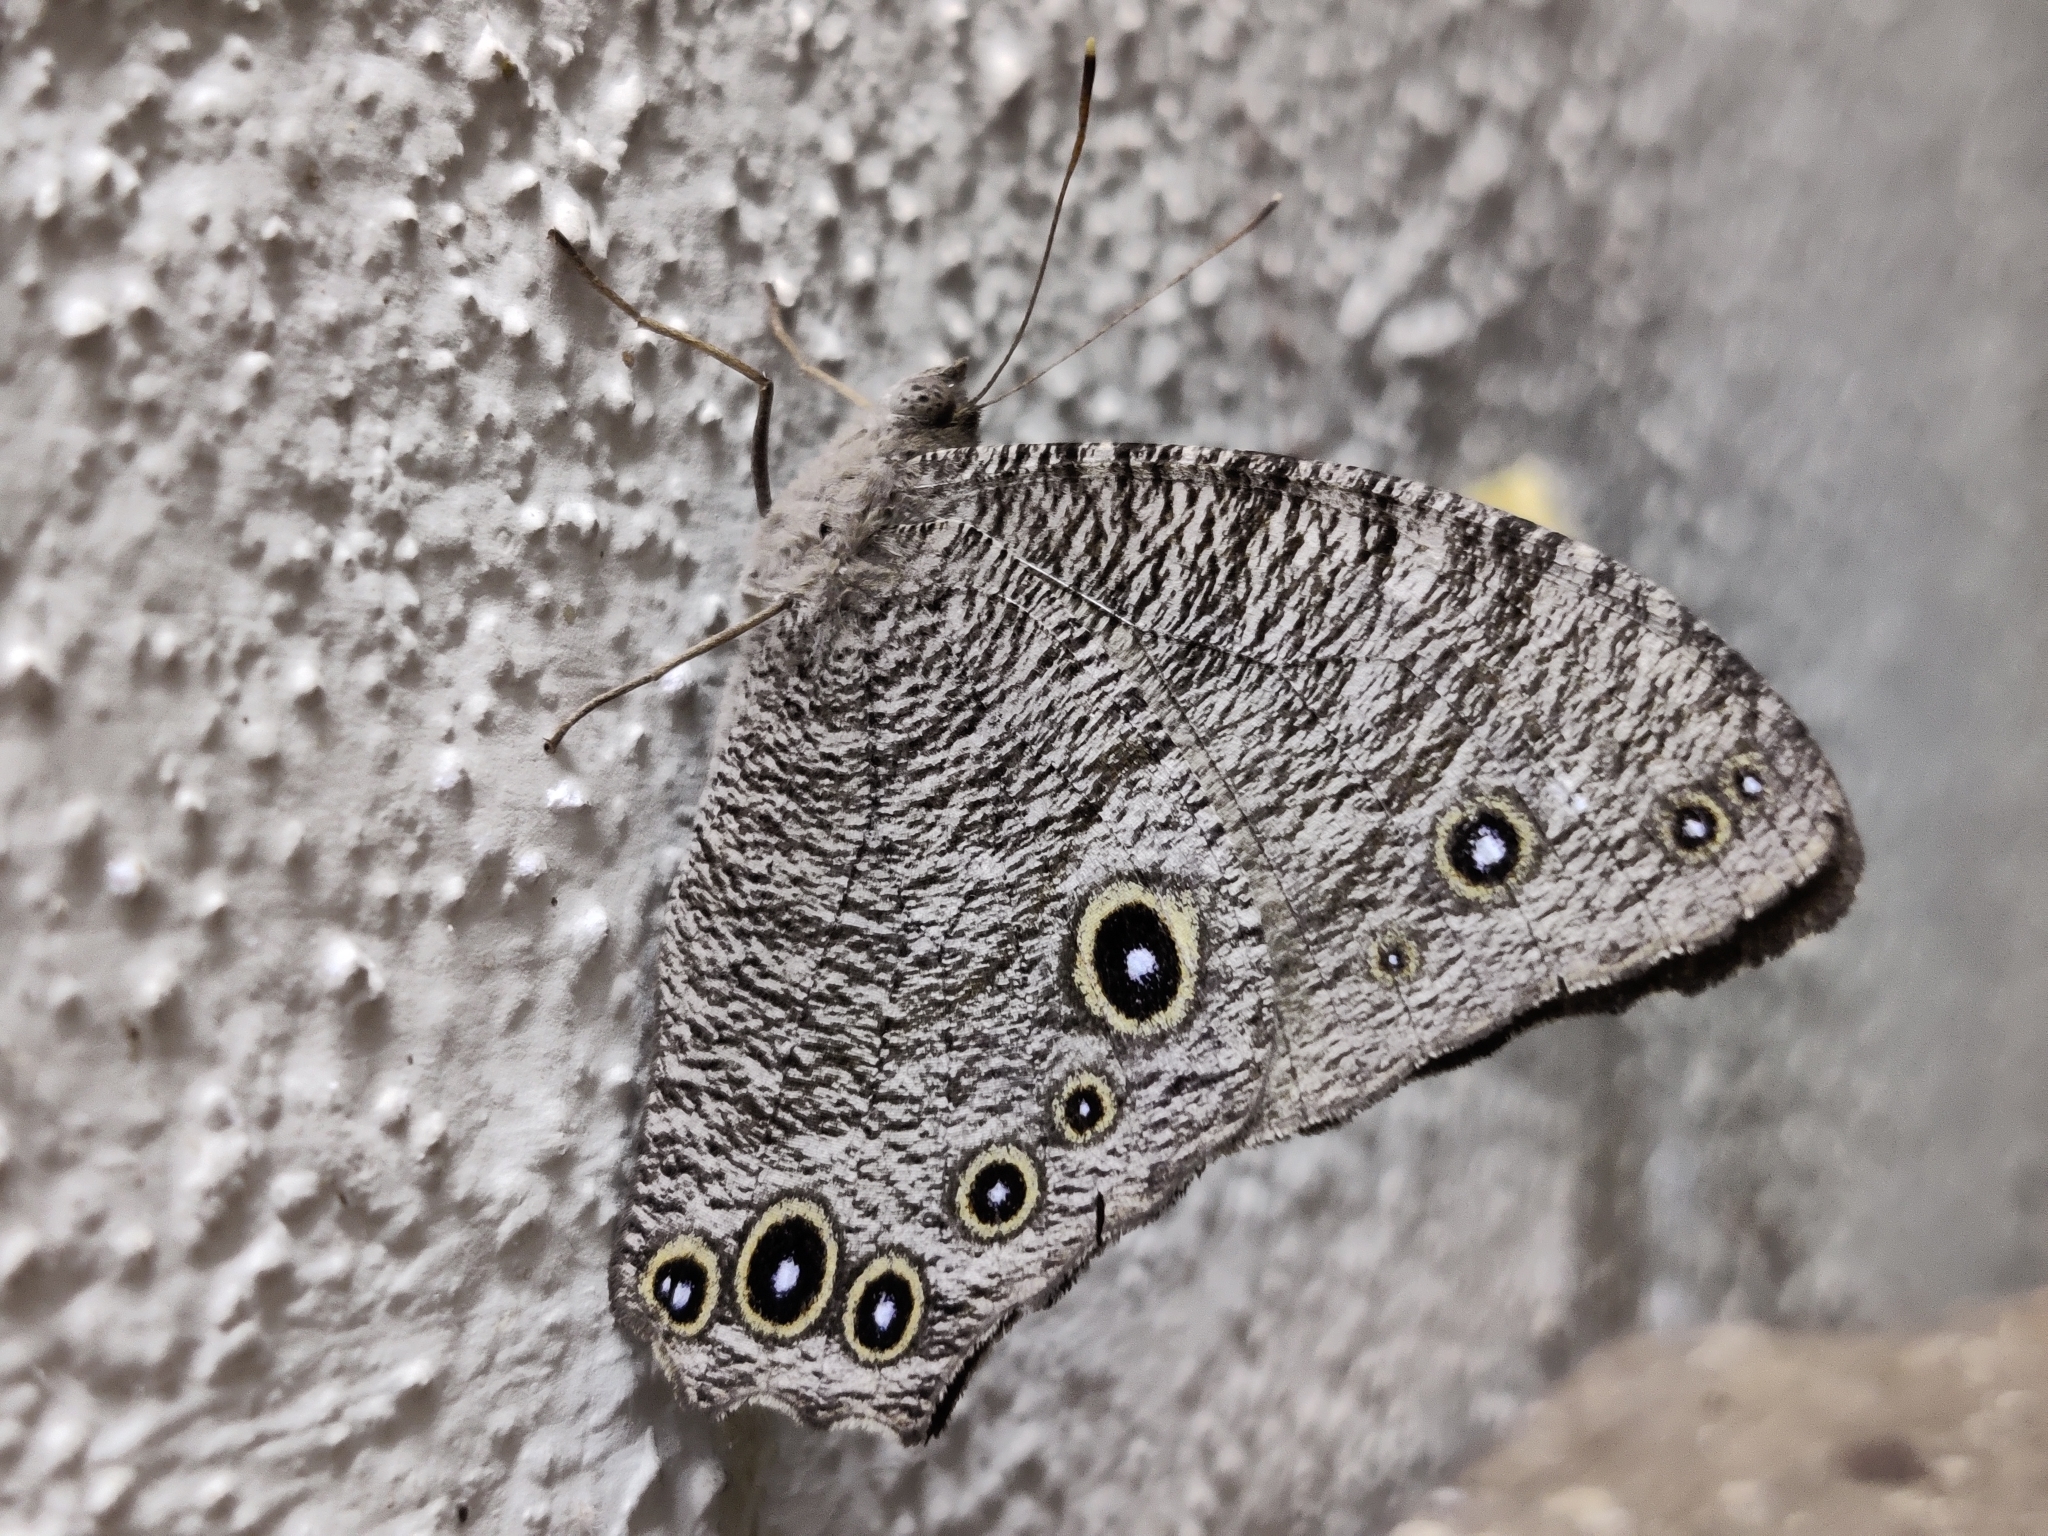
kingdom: Animalia
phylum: Arthropoda
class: Insecta
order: Lepidoptera
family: Nymphalidae
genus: Melanitis
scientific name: Melanitis leda
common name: Twilight brown
